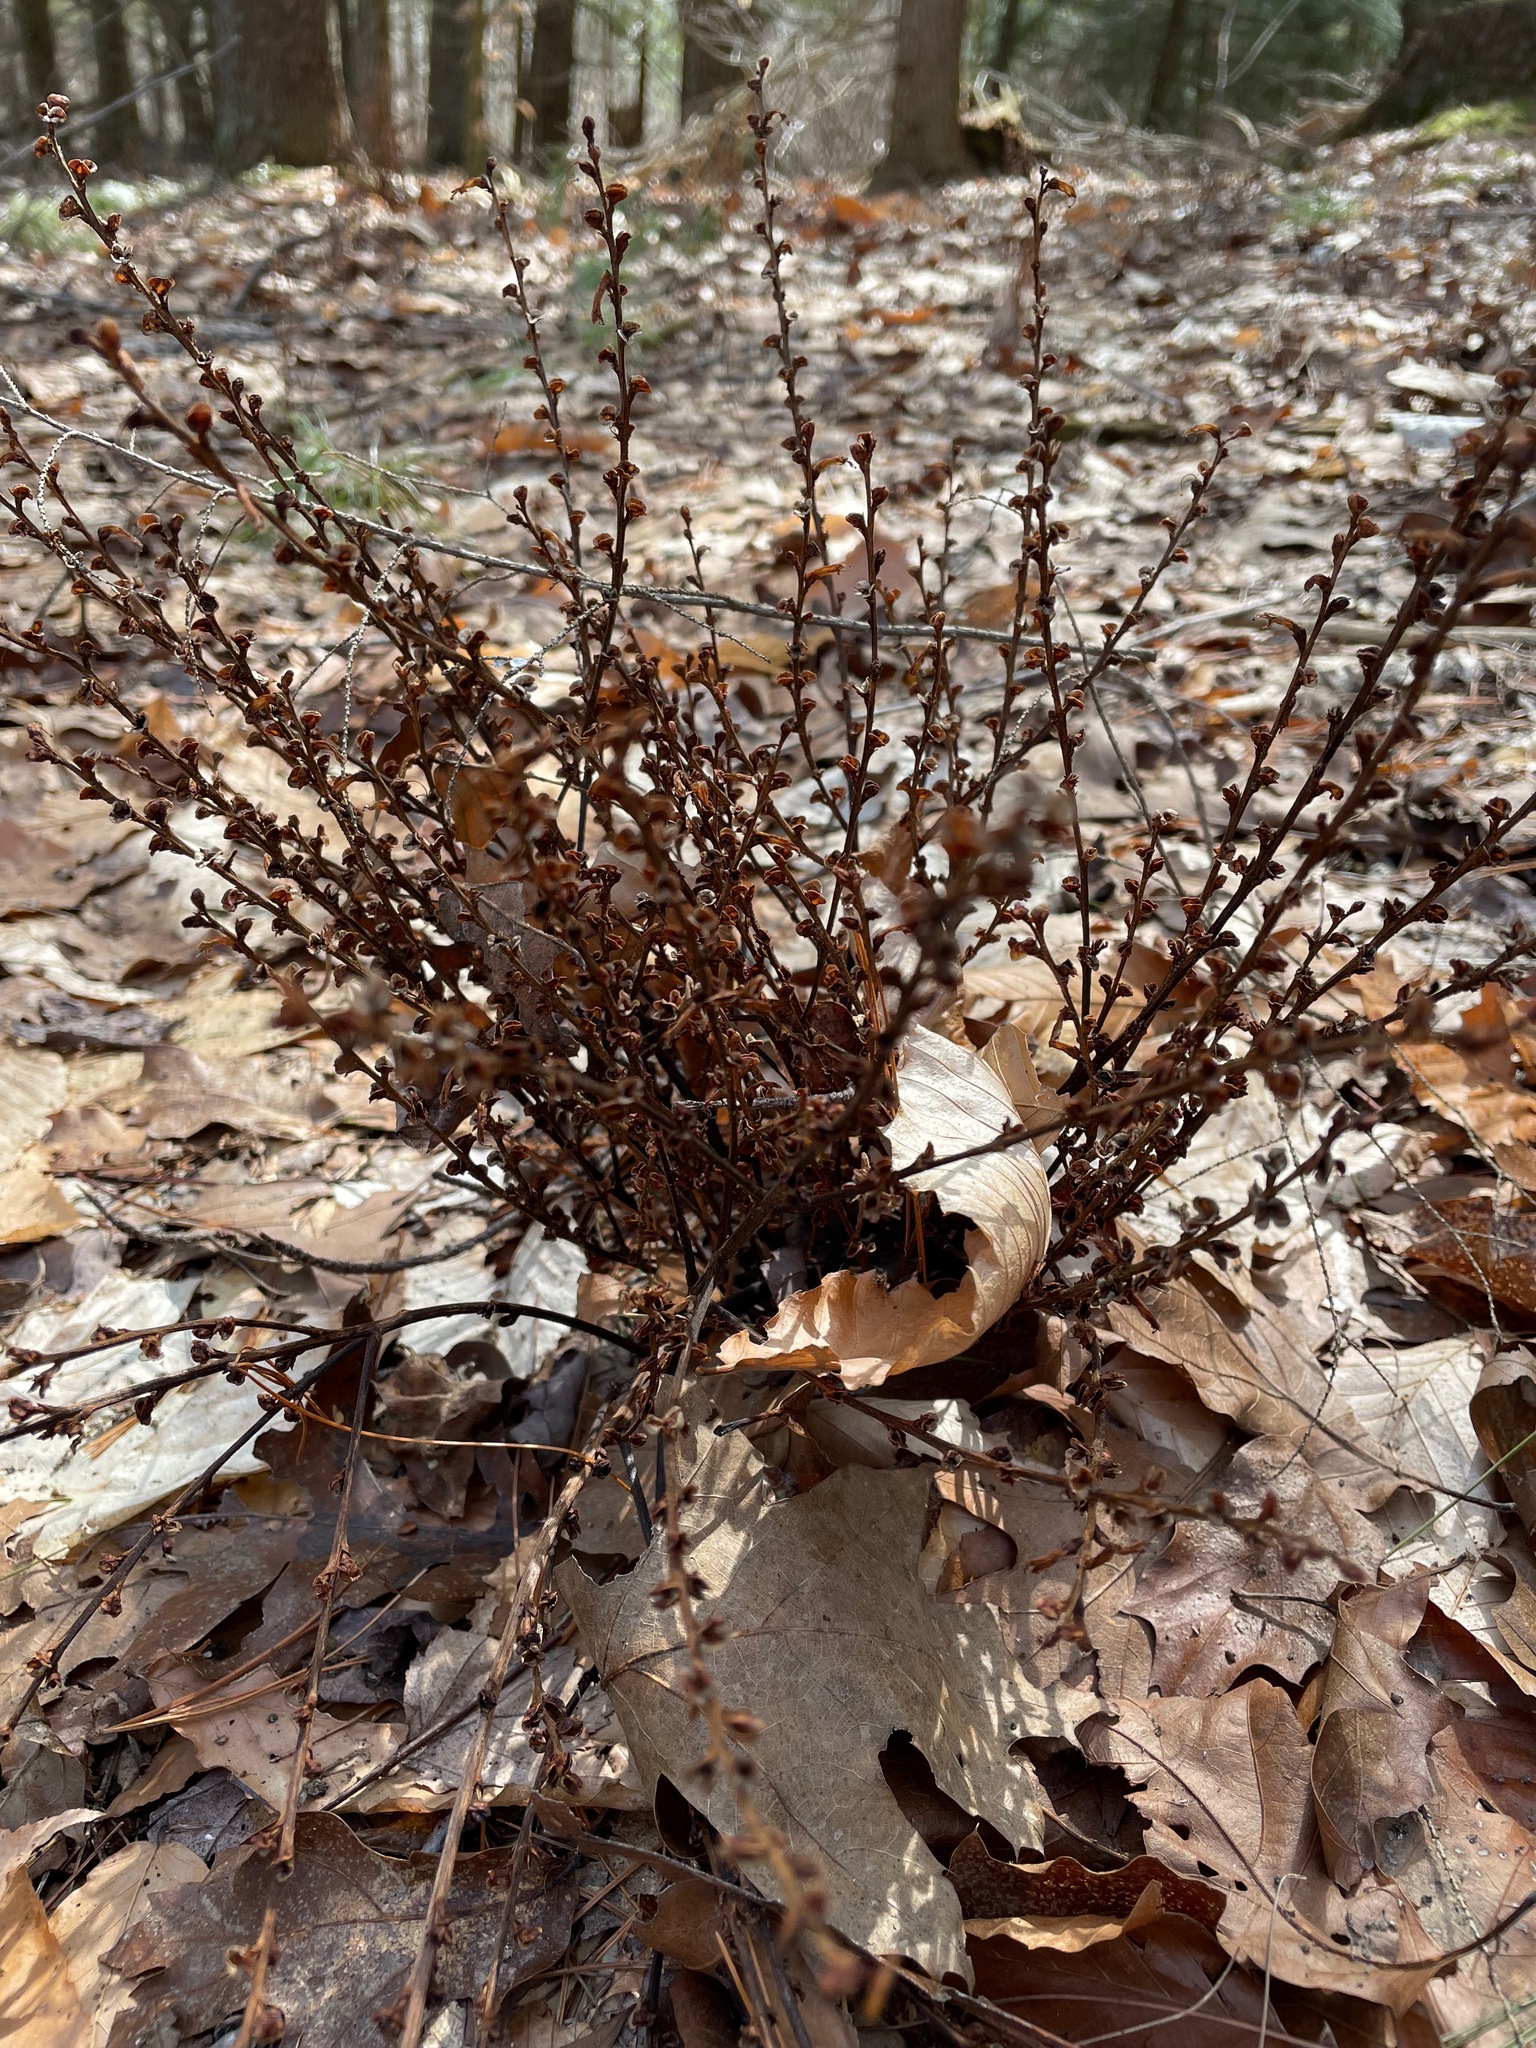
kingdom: Plantae
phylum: Tracheophyta
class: Magnoliopsida
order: Lamiales
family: Orobanchaceae
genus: Epifagus
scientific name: Epifagus virginiana
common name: Beechdrops
